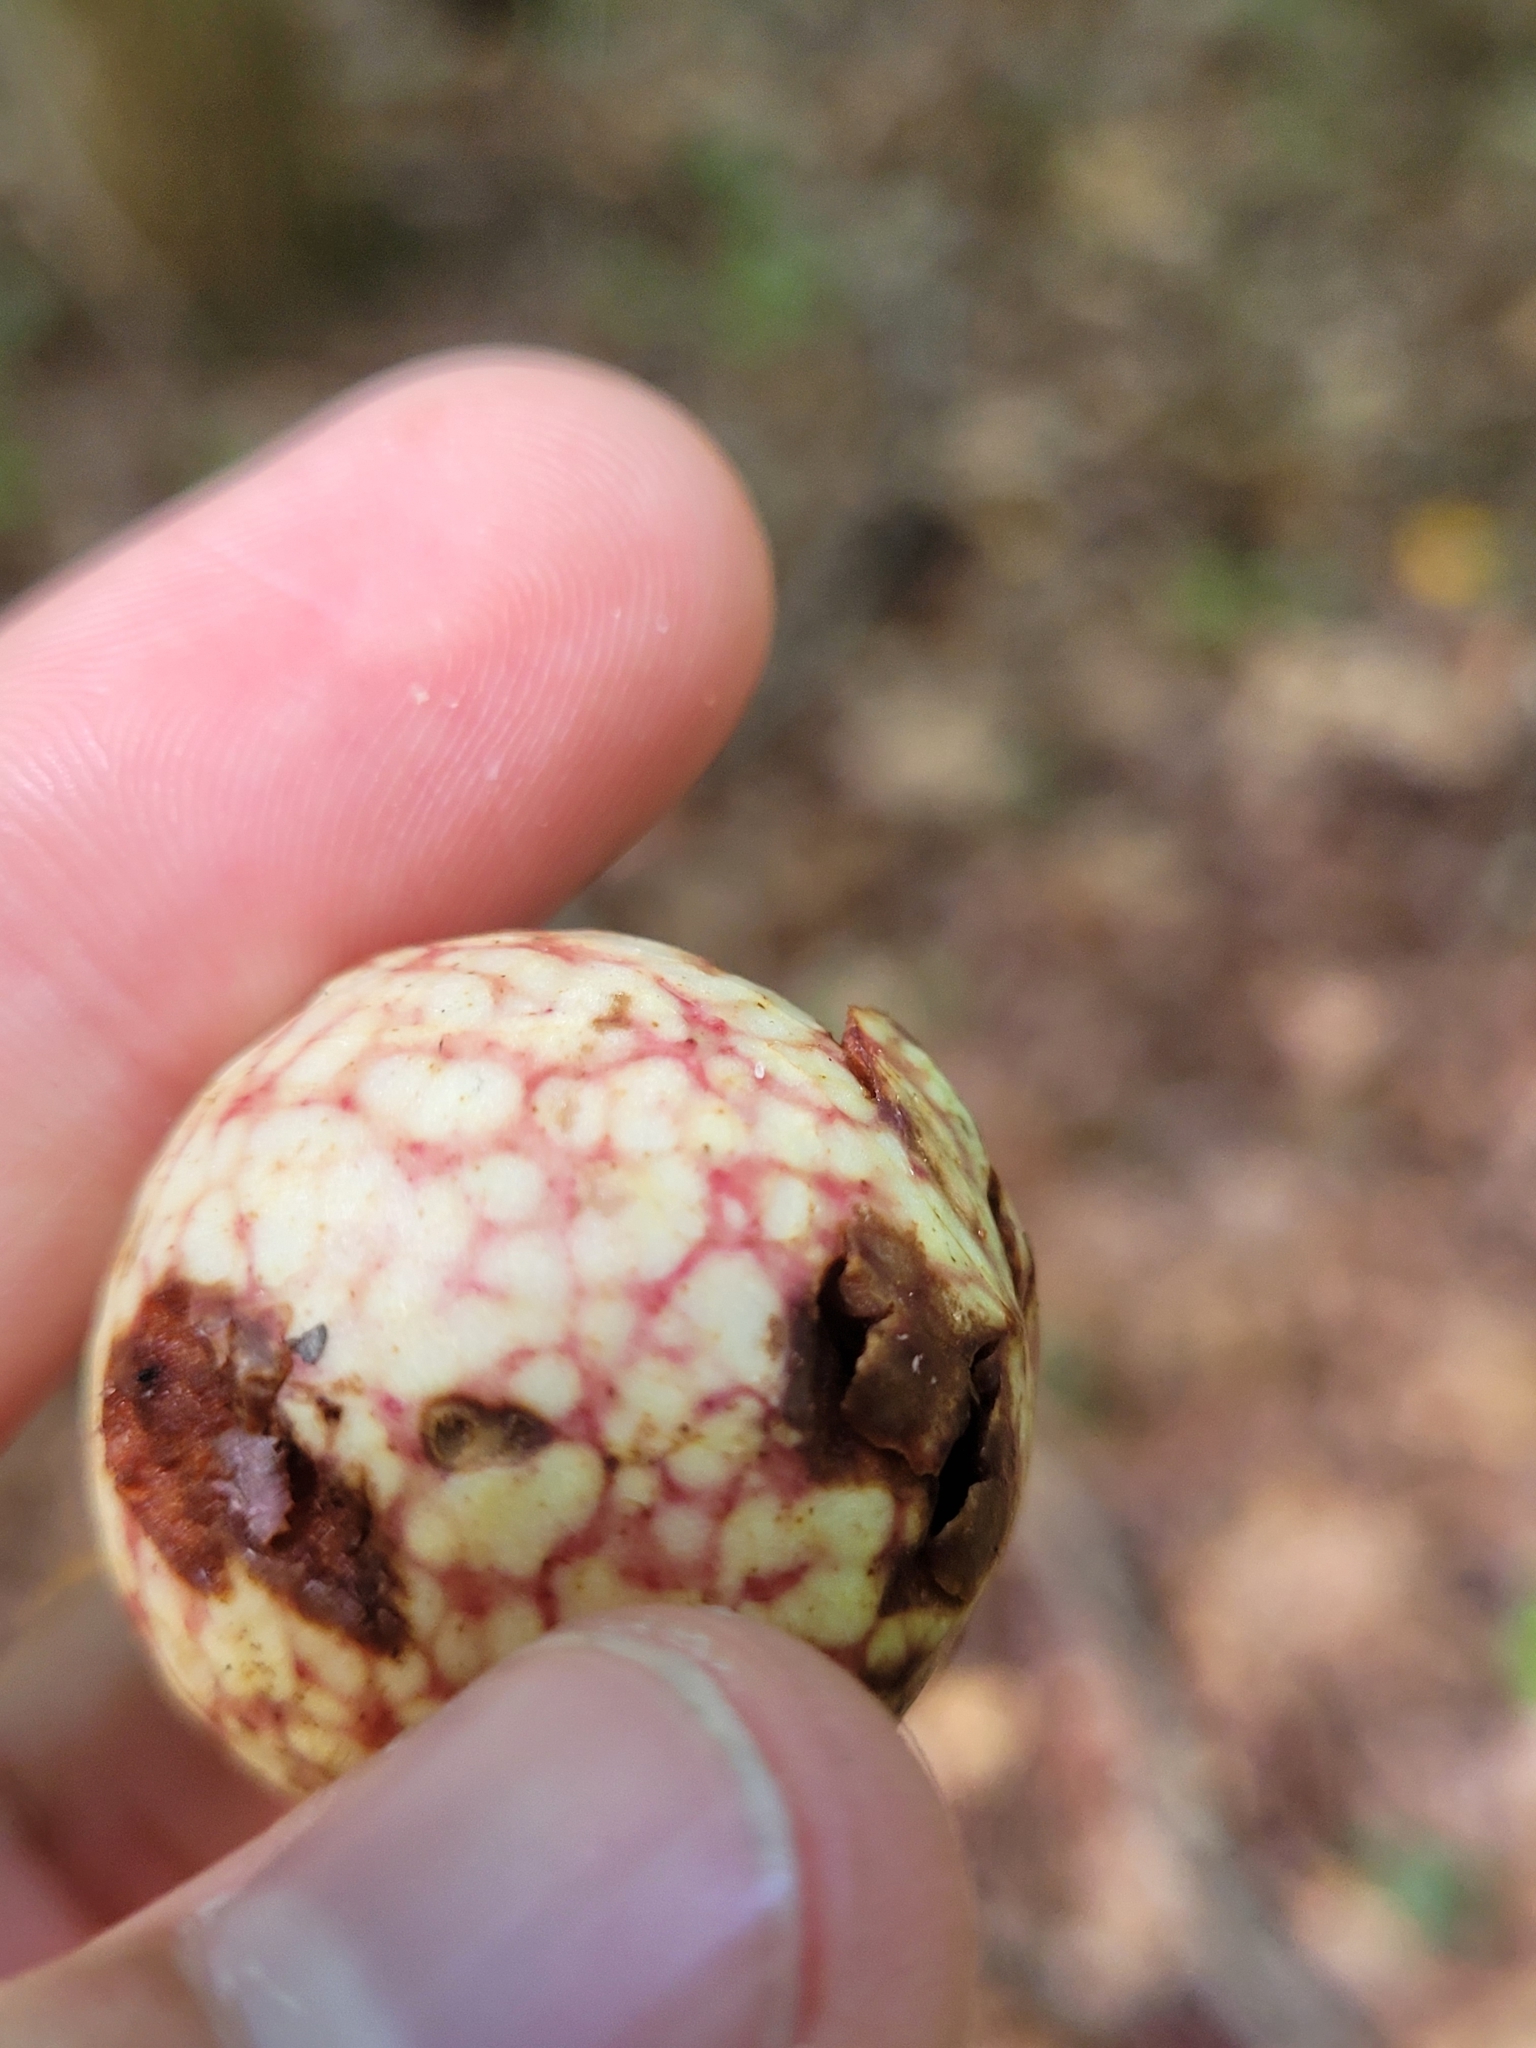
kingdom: Animalia
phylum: Arthropoda
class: Insecta
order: Hymenoptera
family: Cynipidae
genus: Amphibolips
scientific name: Amphibolips
